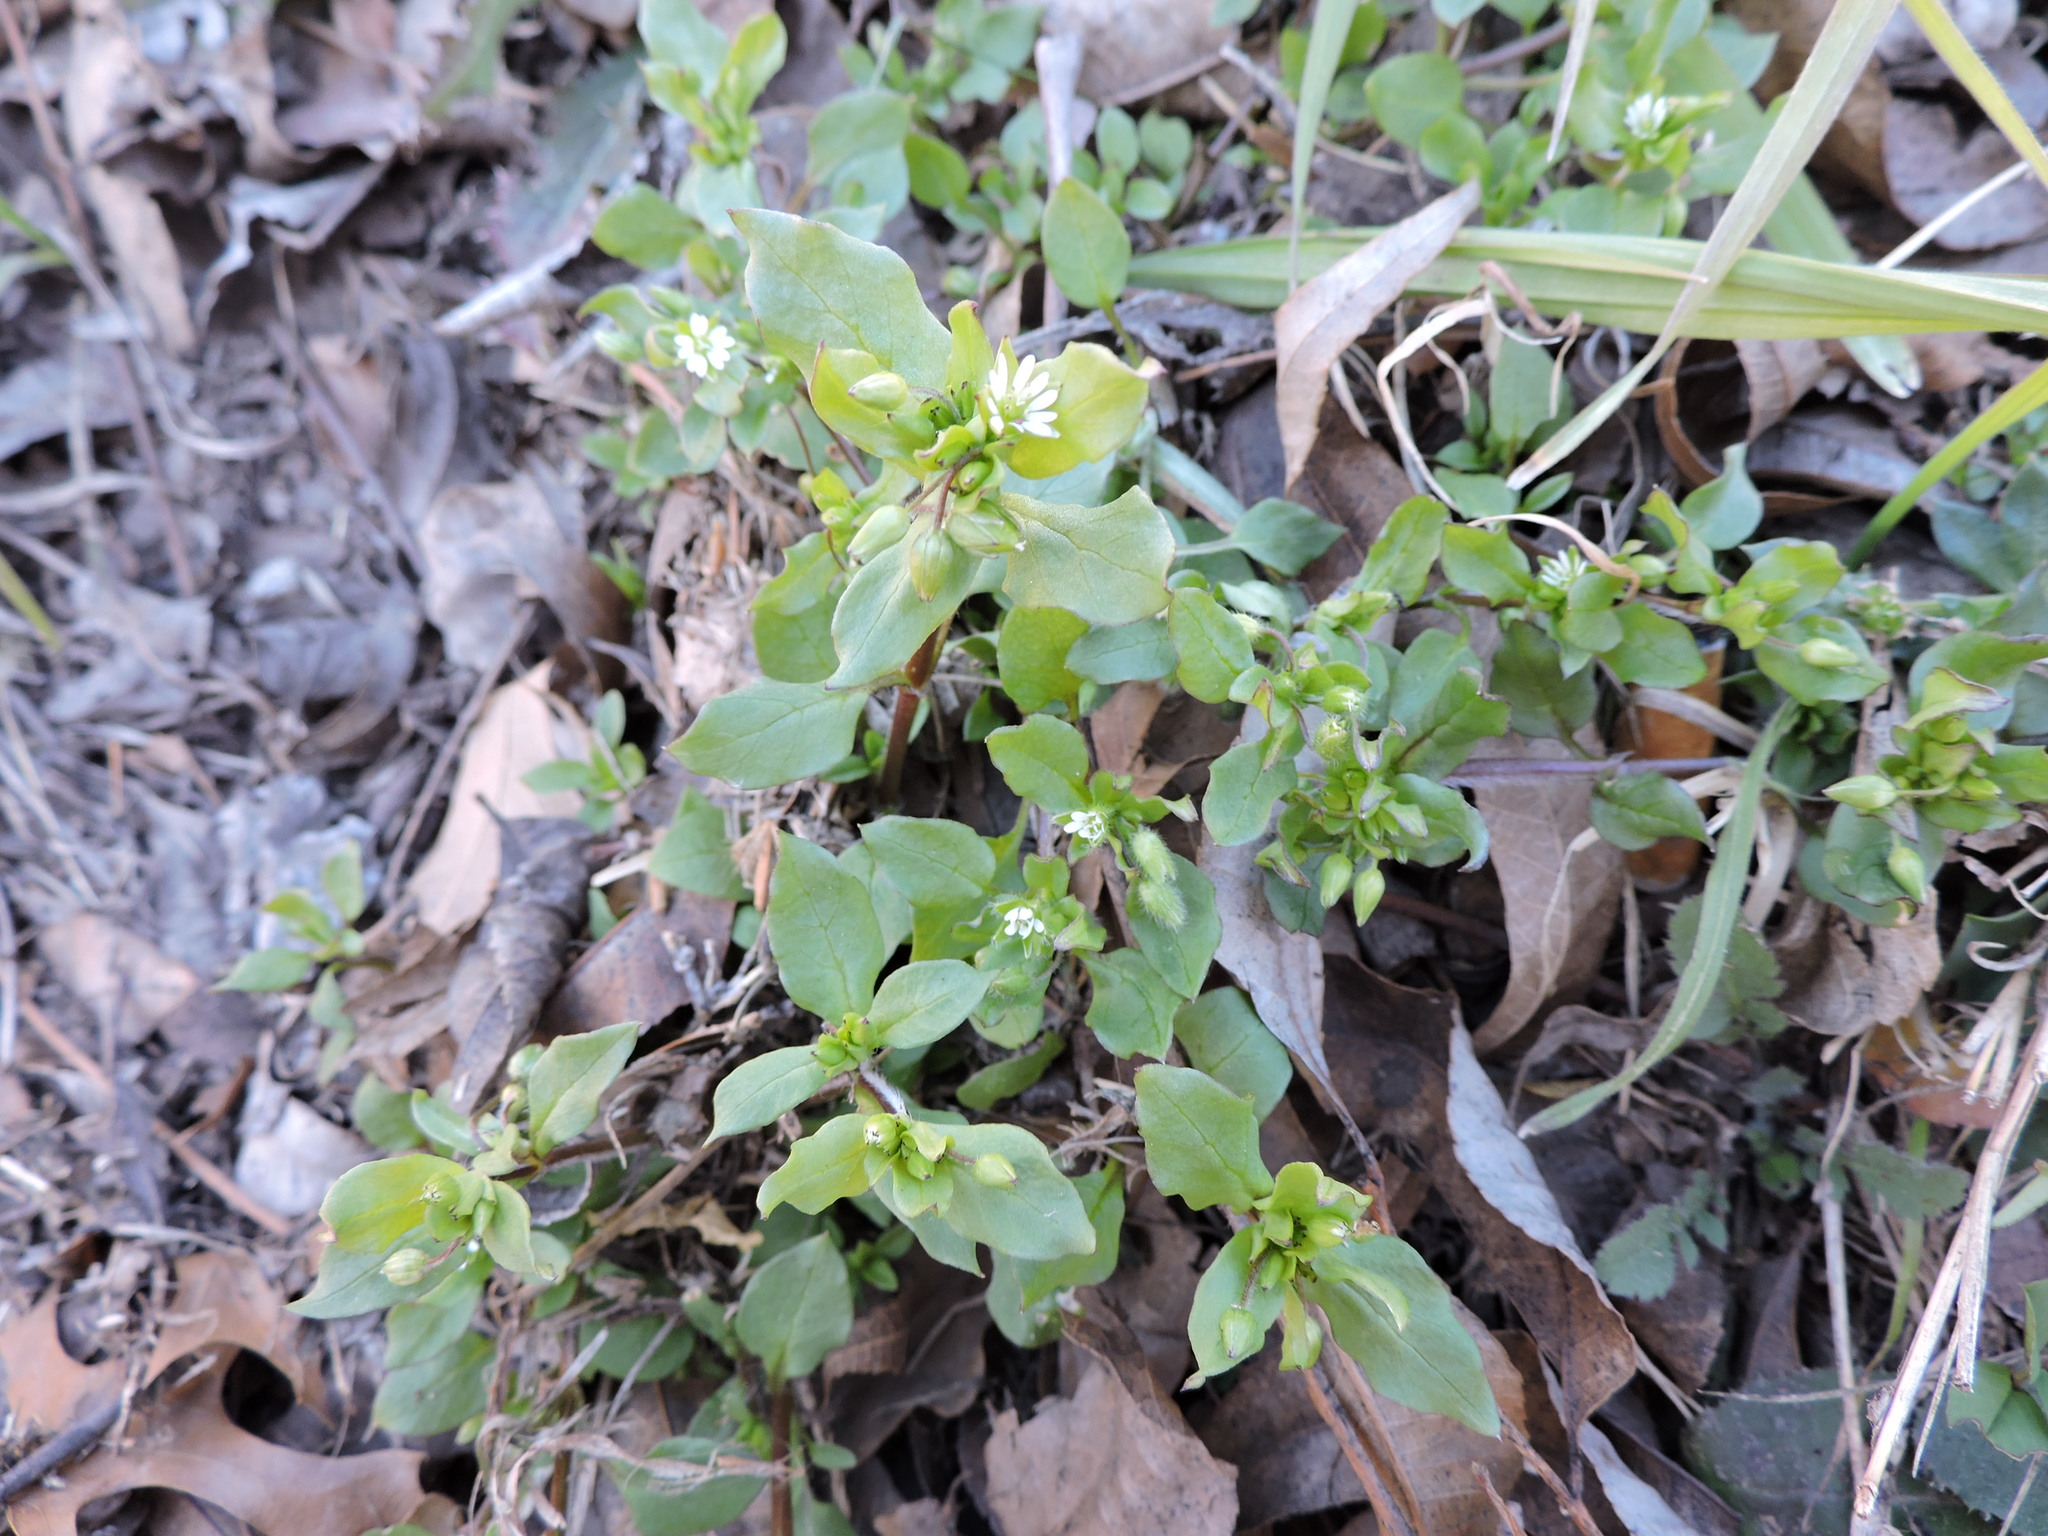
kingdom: Plantae
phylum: Tracheophyta
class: Magnoliopsida
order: Caryophyllales
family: Caryophyllaceae
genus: Stellaria
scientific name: Stellaria media
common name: Common chickweed
